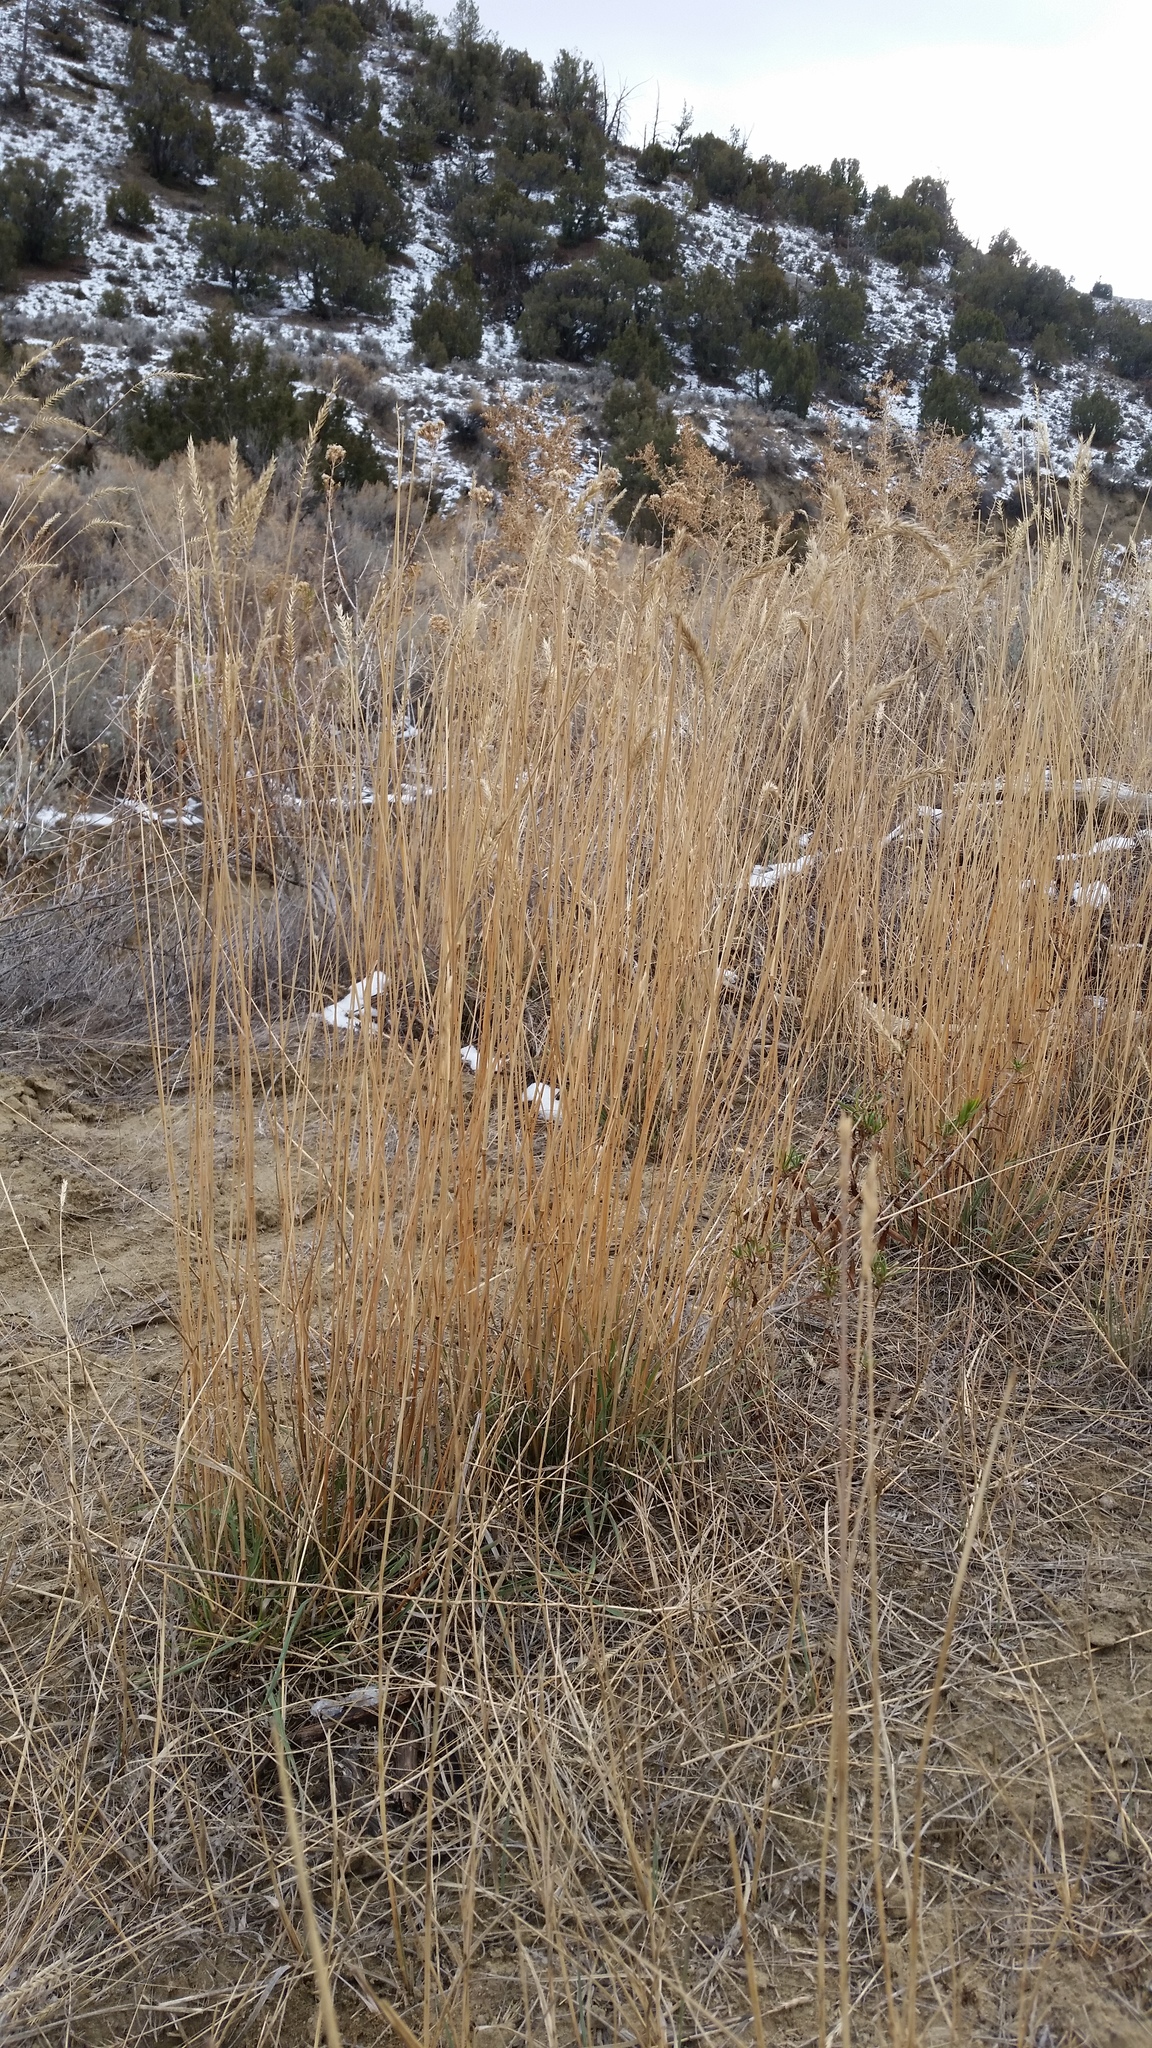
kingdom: Plantae
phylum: Tracheophyta
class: Liliopsida
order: Poales
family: Poaceae
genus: Agropyron
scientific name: Agropyron cristatum
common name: Crested wheatgrass
